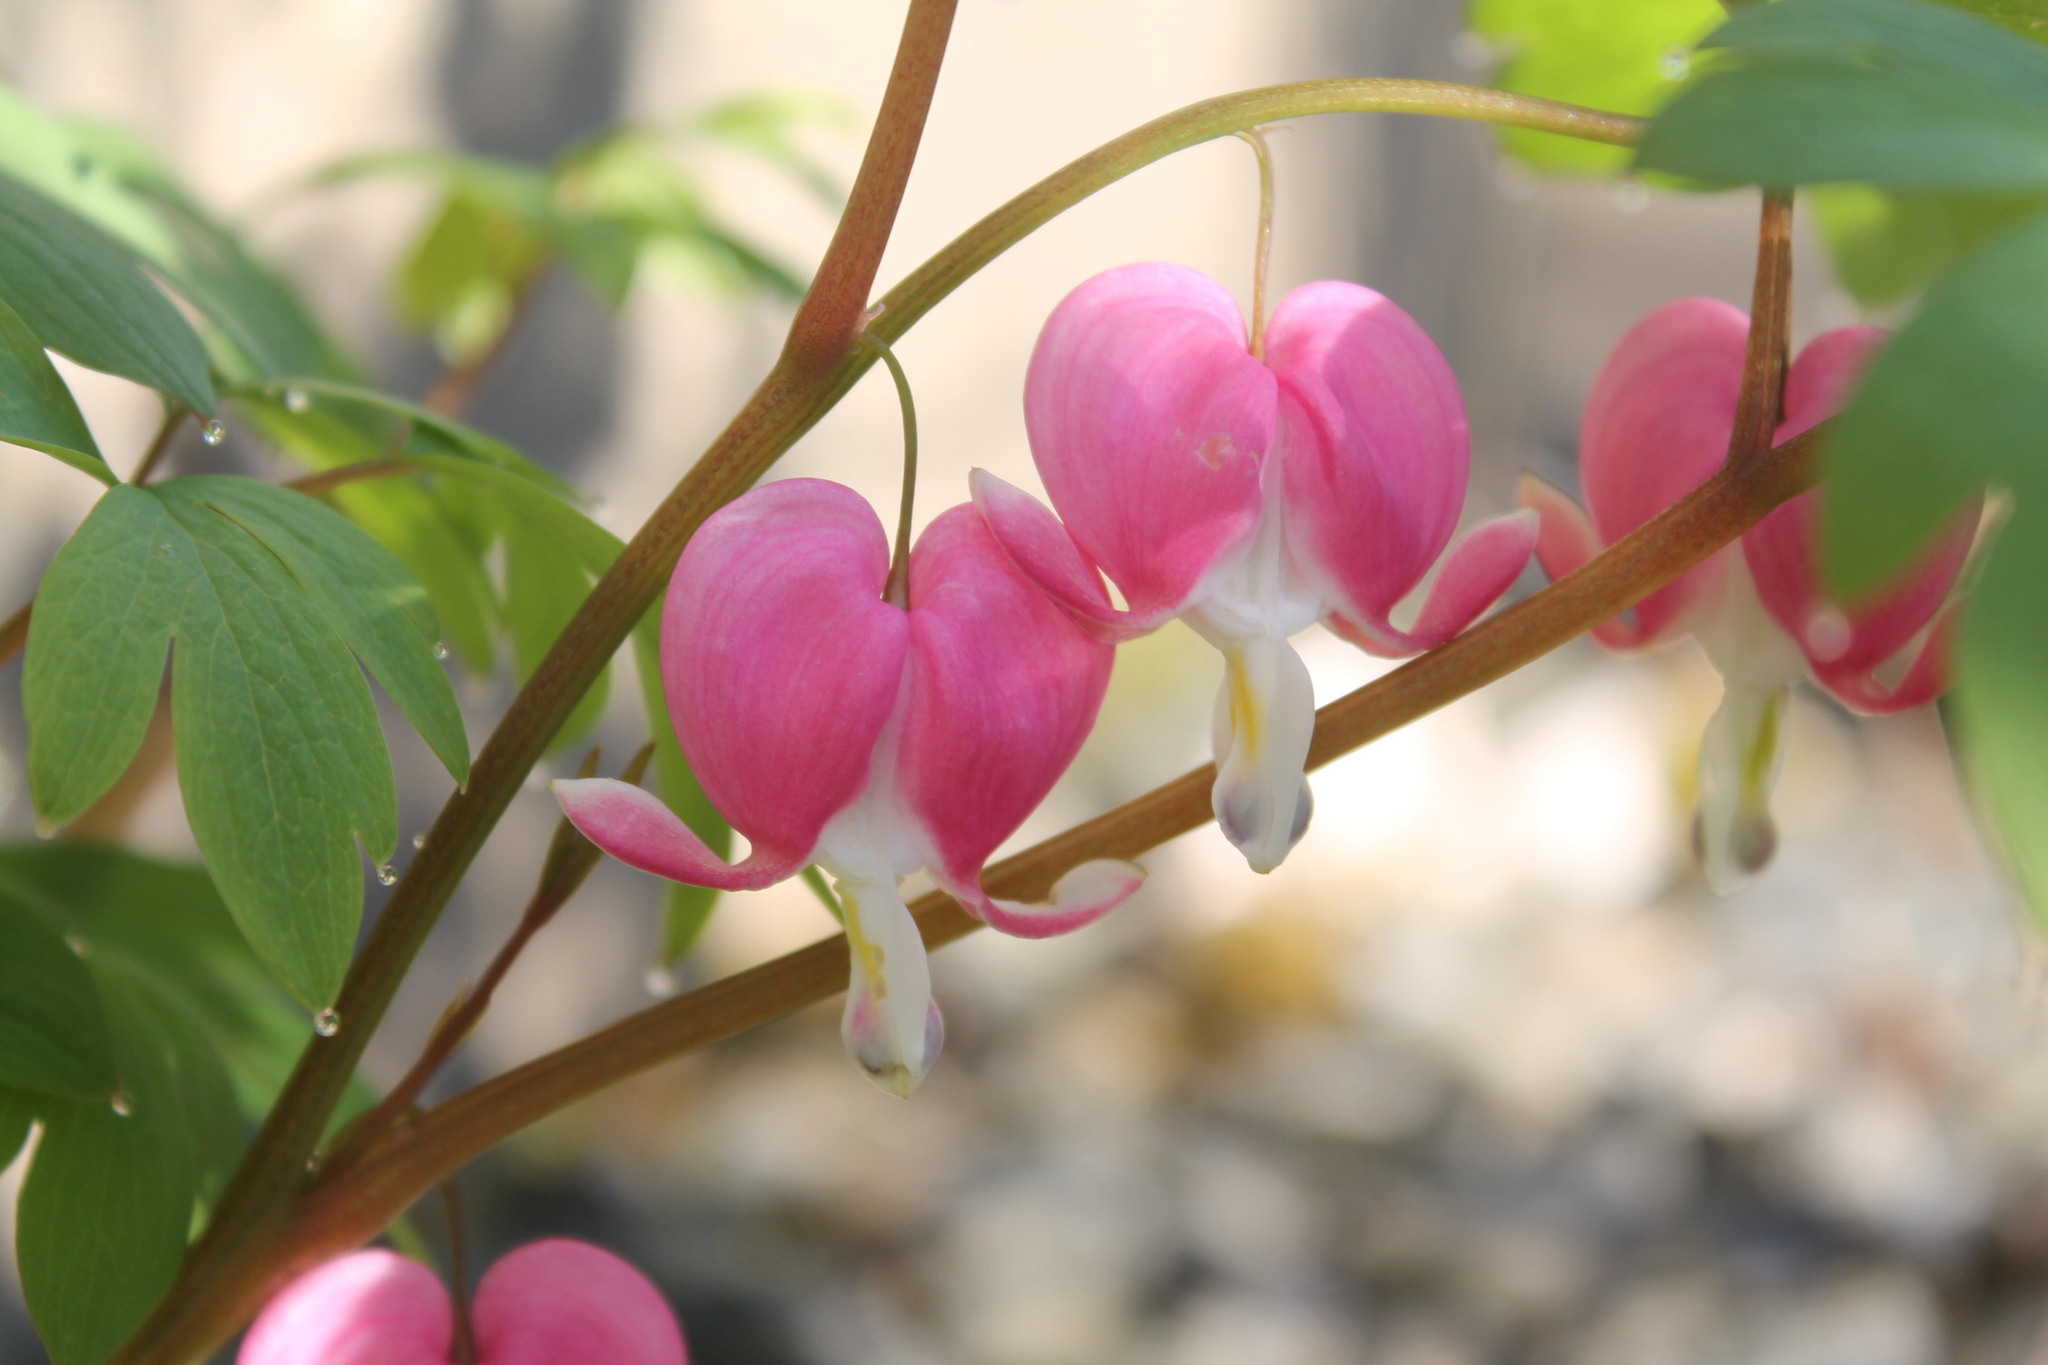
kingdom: Plantae
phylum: Tracheophyta
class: Magnoliopsida
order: Ranunculales
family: Papaveraceae
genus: Lamprocapnos
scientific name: Lamprocapnos spectabilis
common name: Asian bleeding-heart
